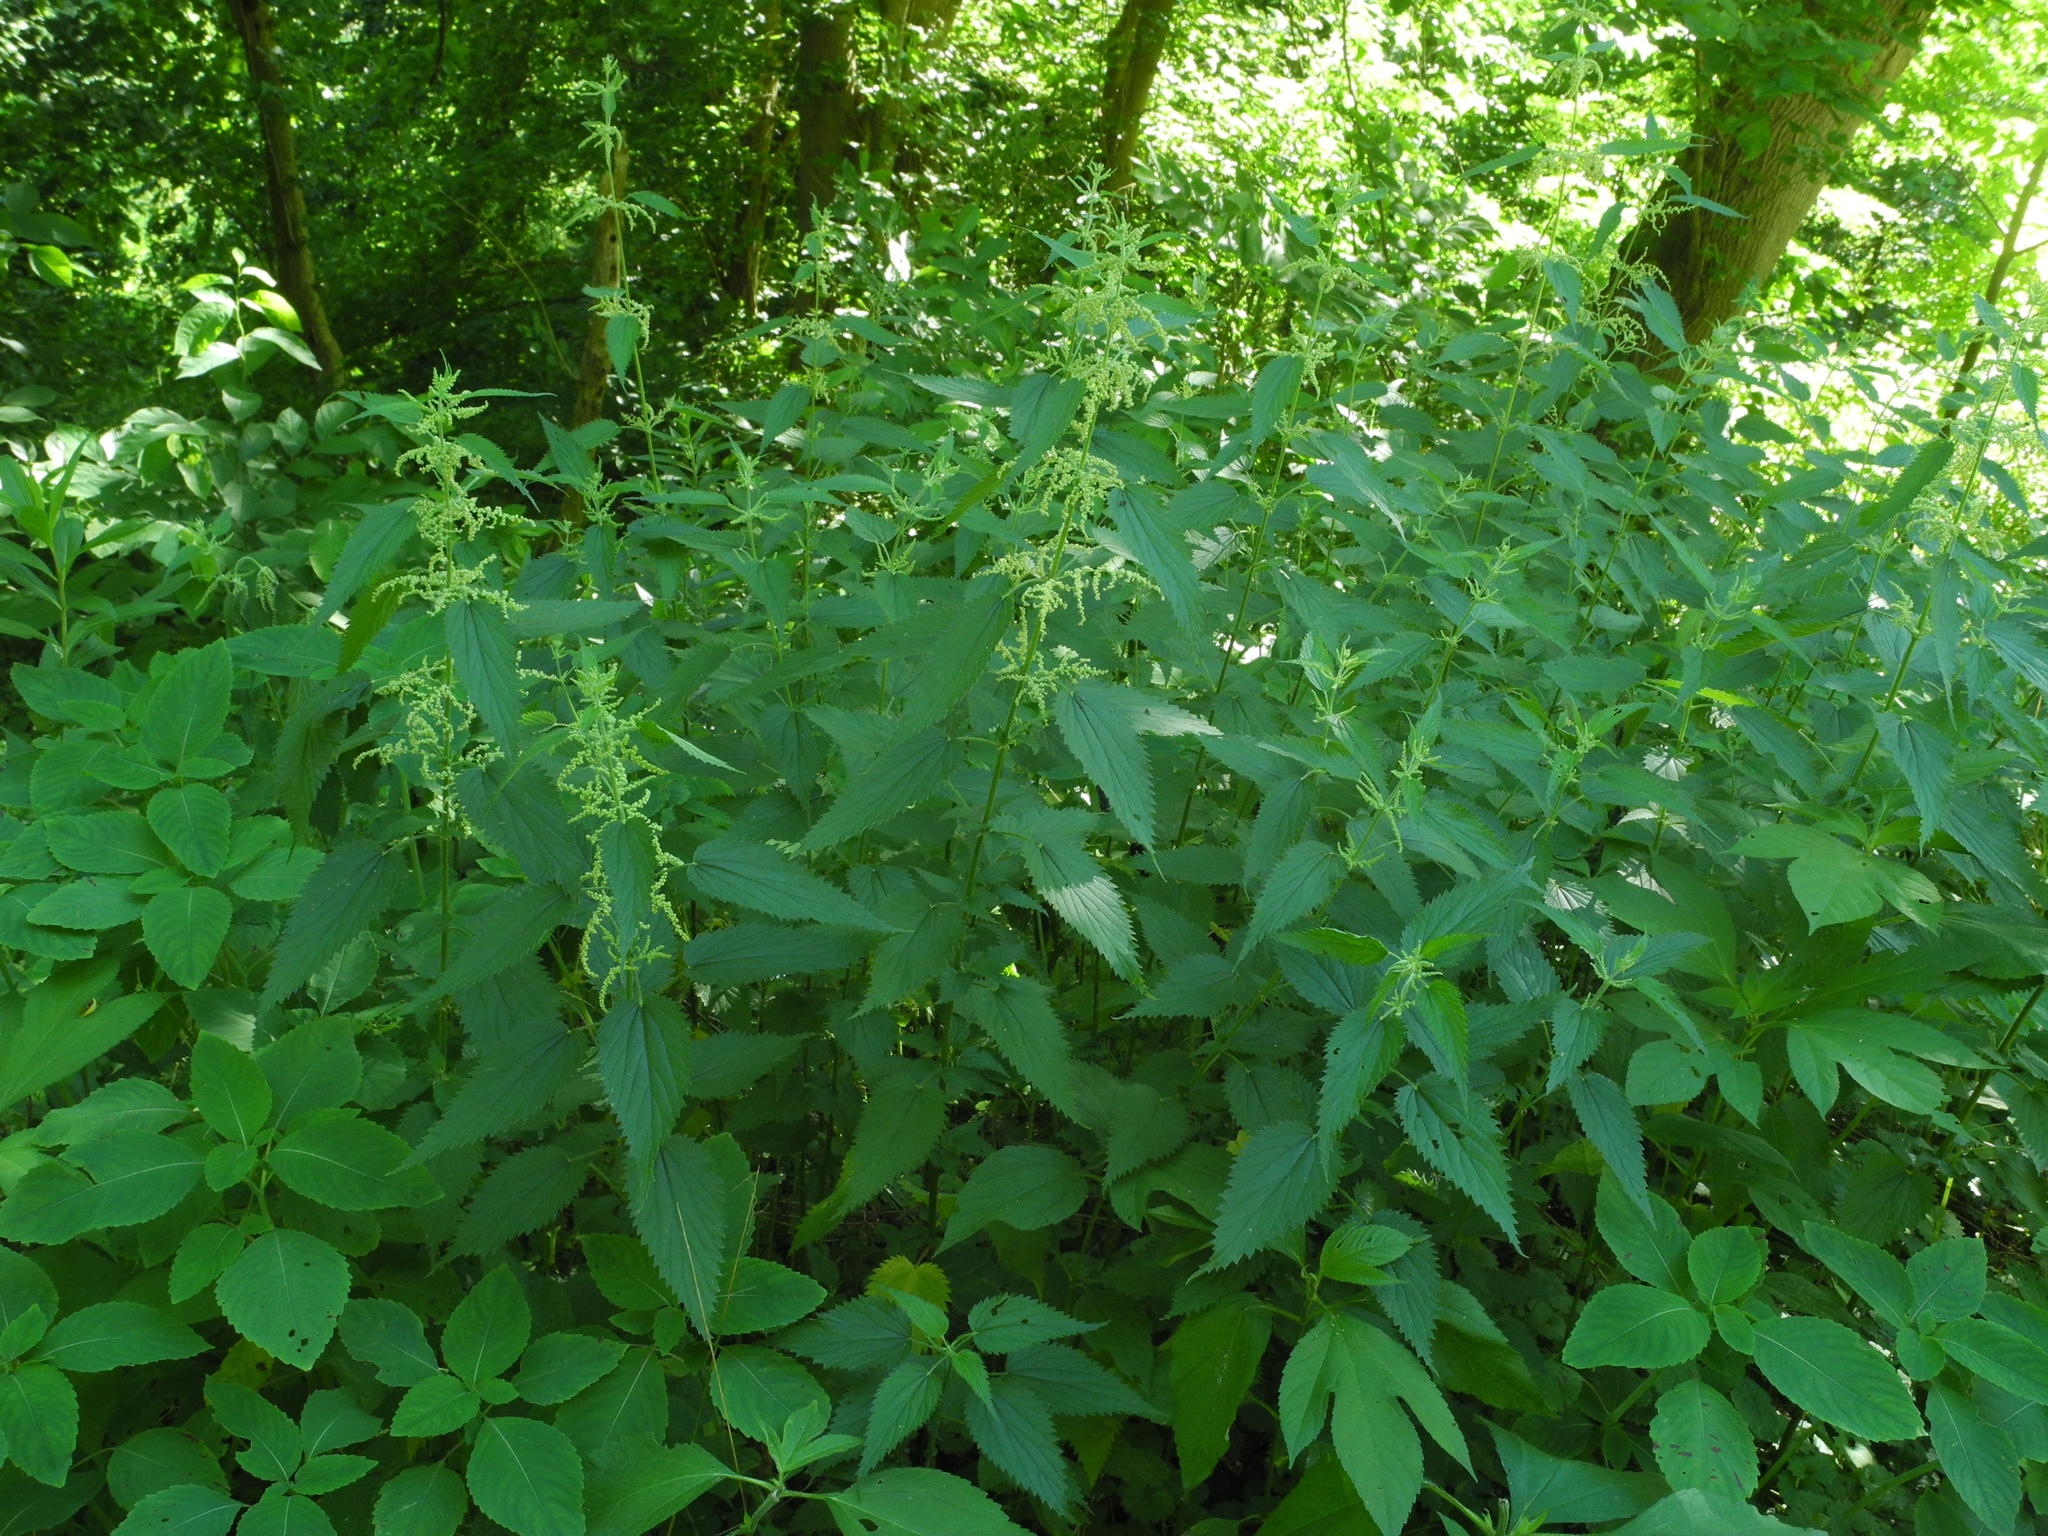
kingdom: Plantae
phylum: Tracheophyta
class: Magnoliopsida
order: Rosales
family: Urticaceae
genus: Urtica
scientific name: Urtica dioica
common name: Common nettle
